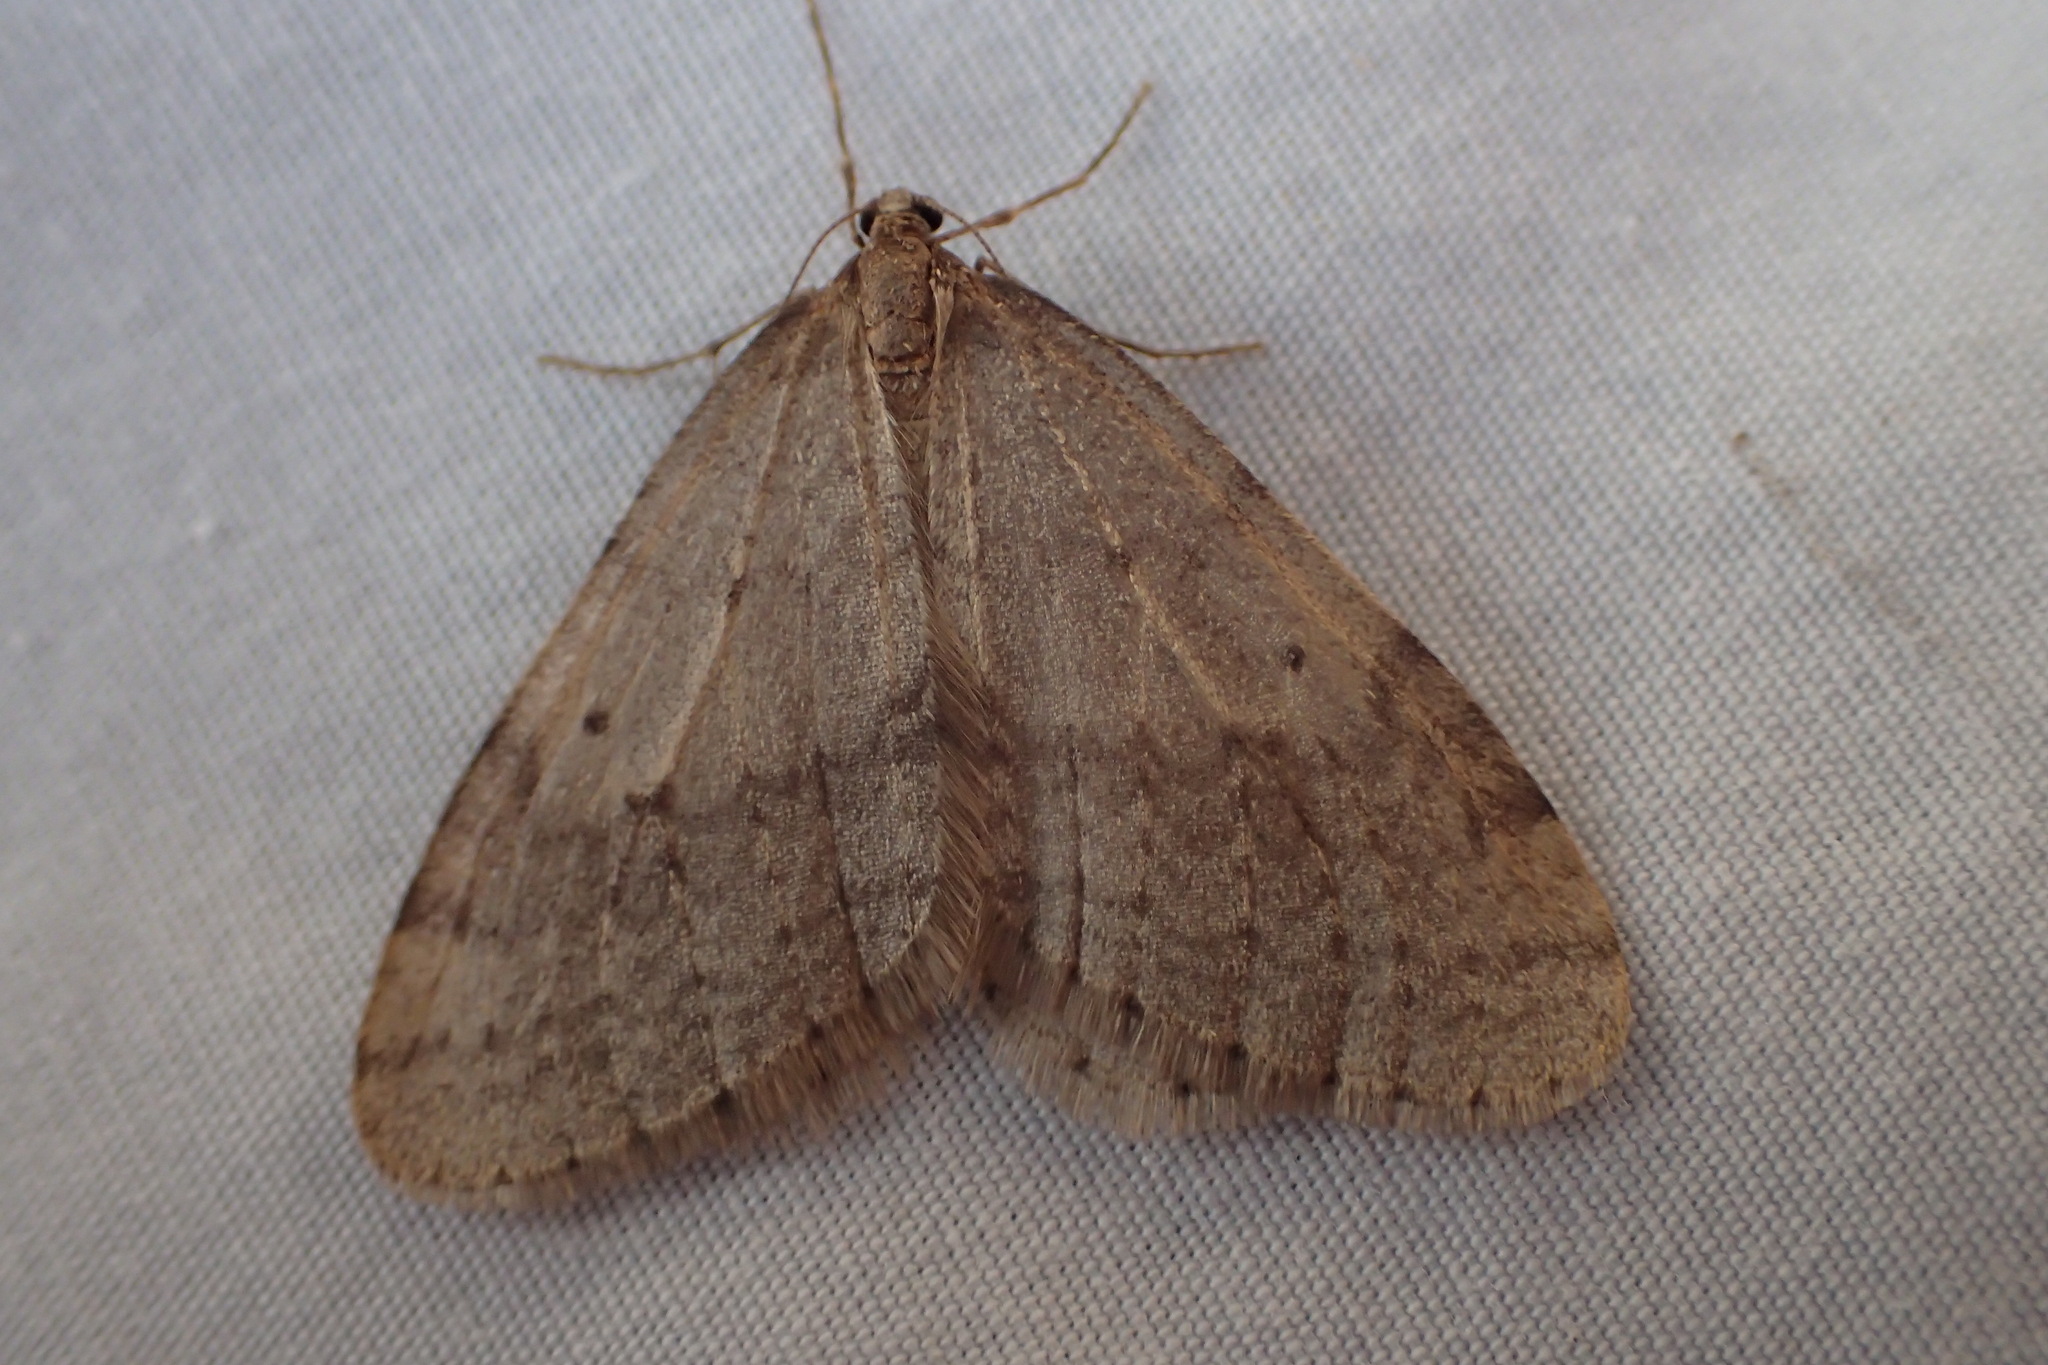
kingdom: Animalia
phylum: Arthropoda
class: Insecta
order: Lepidoptera
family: Geometridae
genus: Operophtera
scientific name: Operophtera bruceata
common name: Bruce spanworm
